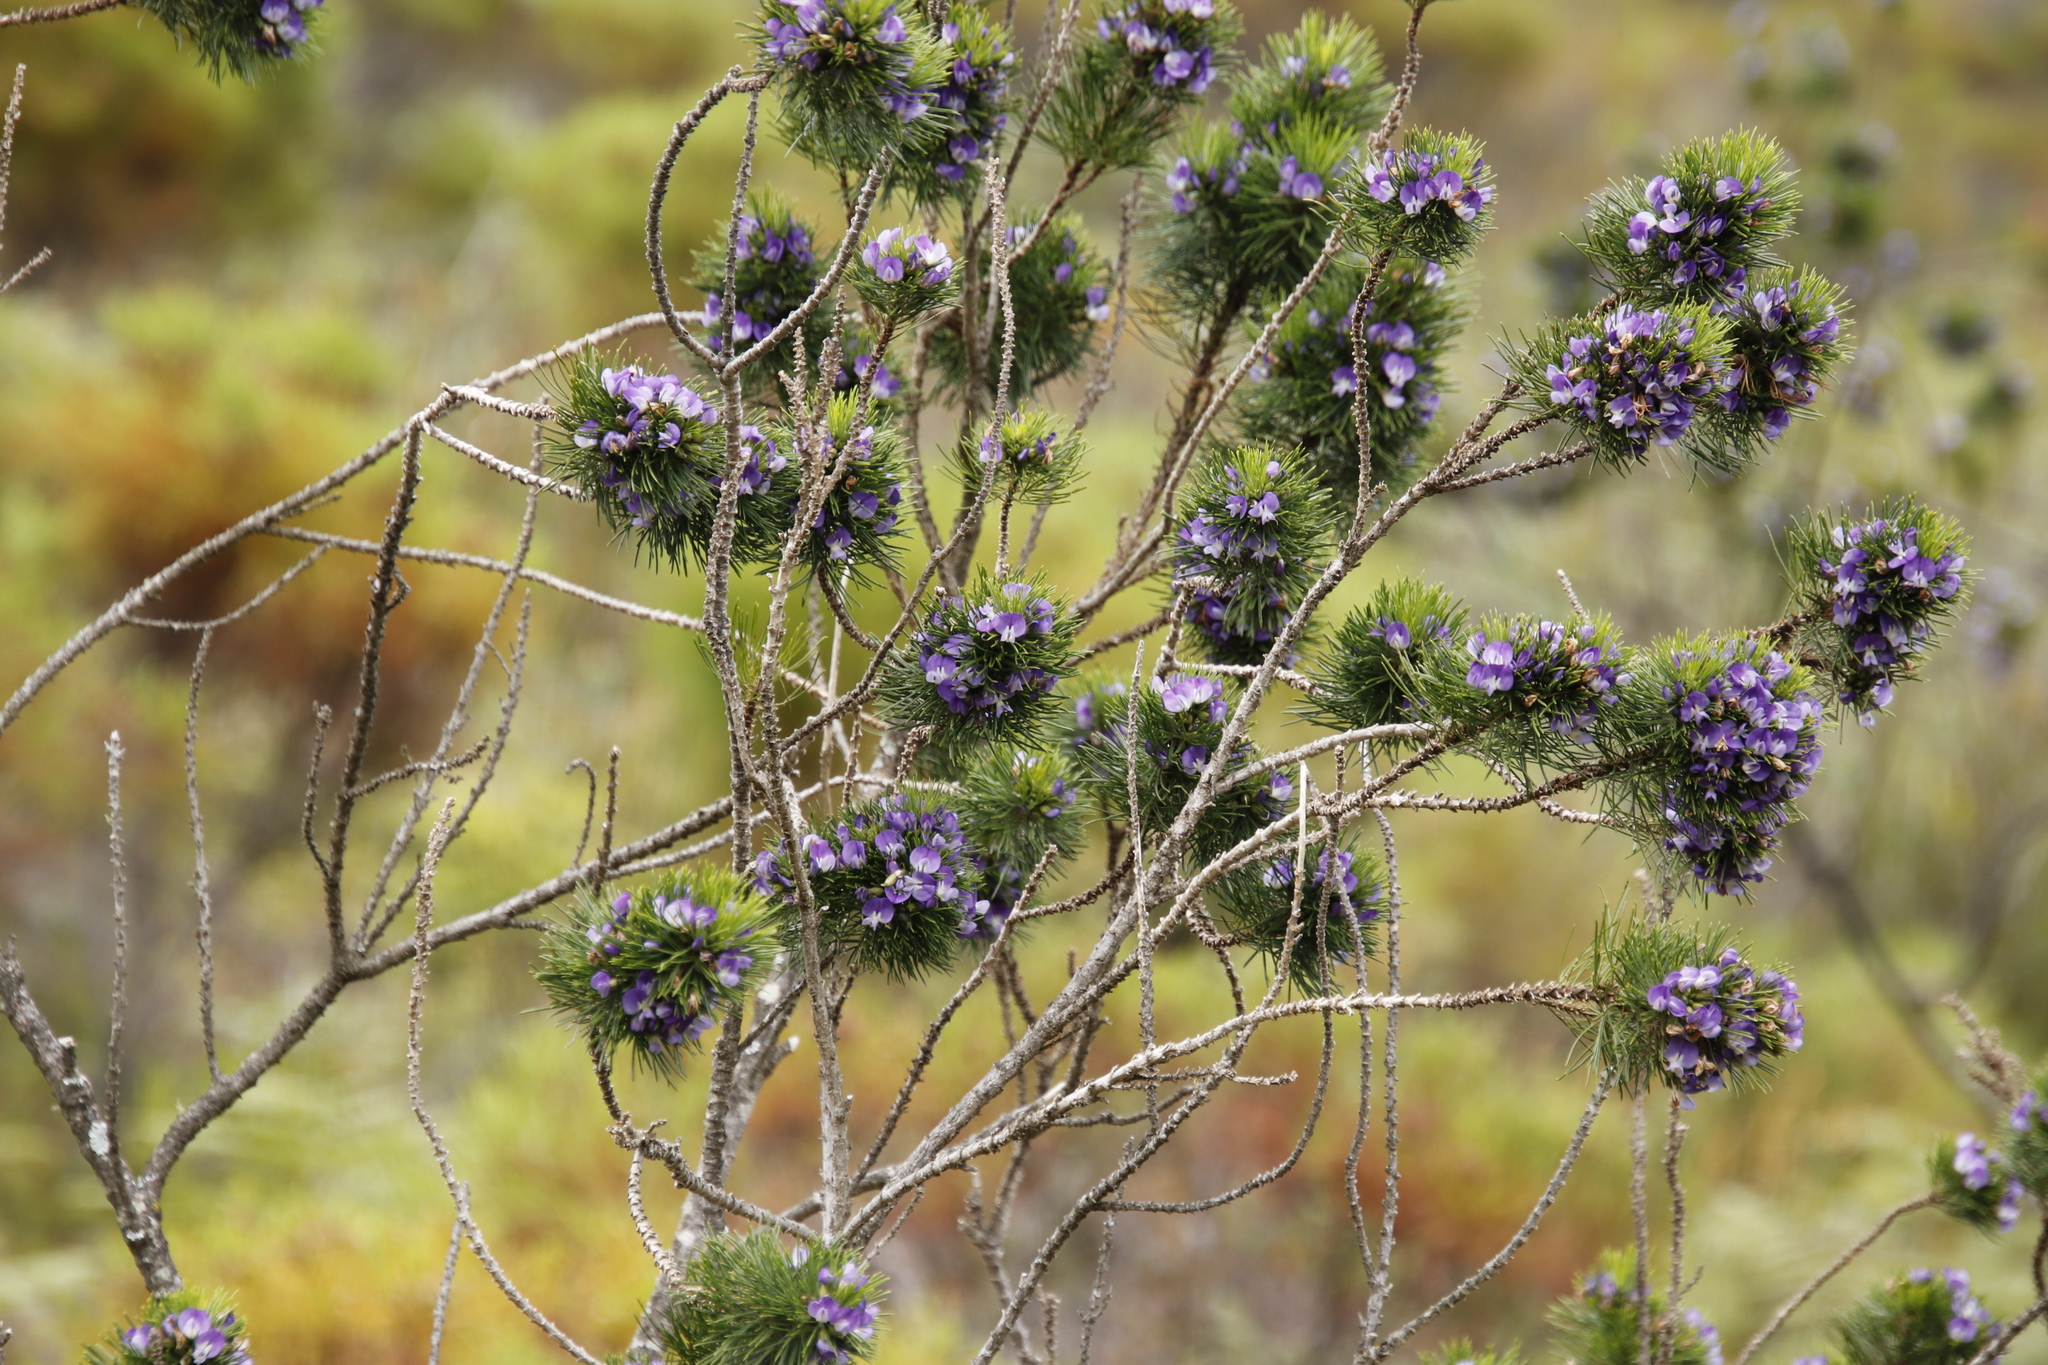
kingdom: Plantae
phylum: Tracheophyta
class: Magnoliopsida
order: Fabales
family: Fabaceae
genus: Psoralea
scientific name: Psoralea pinnata
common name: African scurfpea
